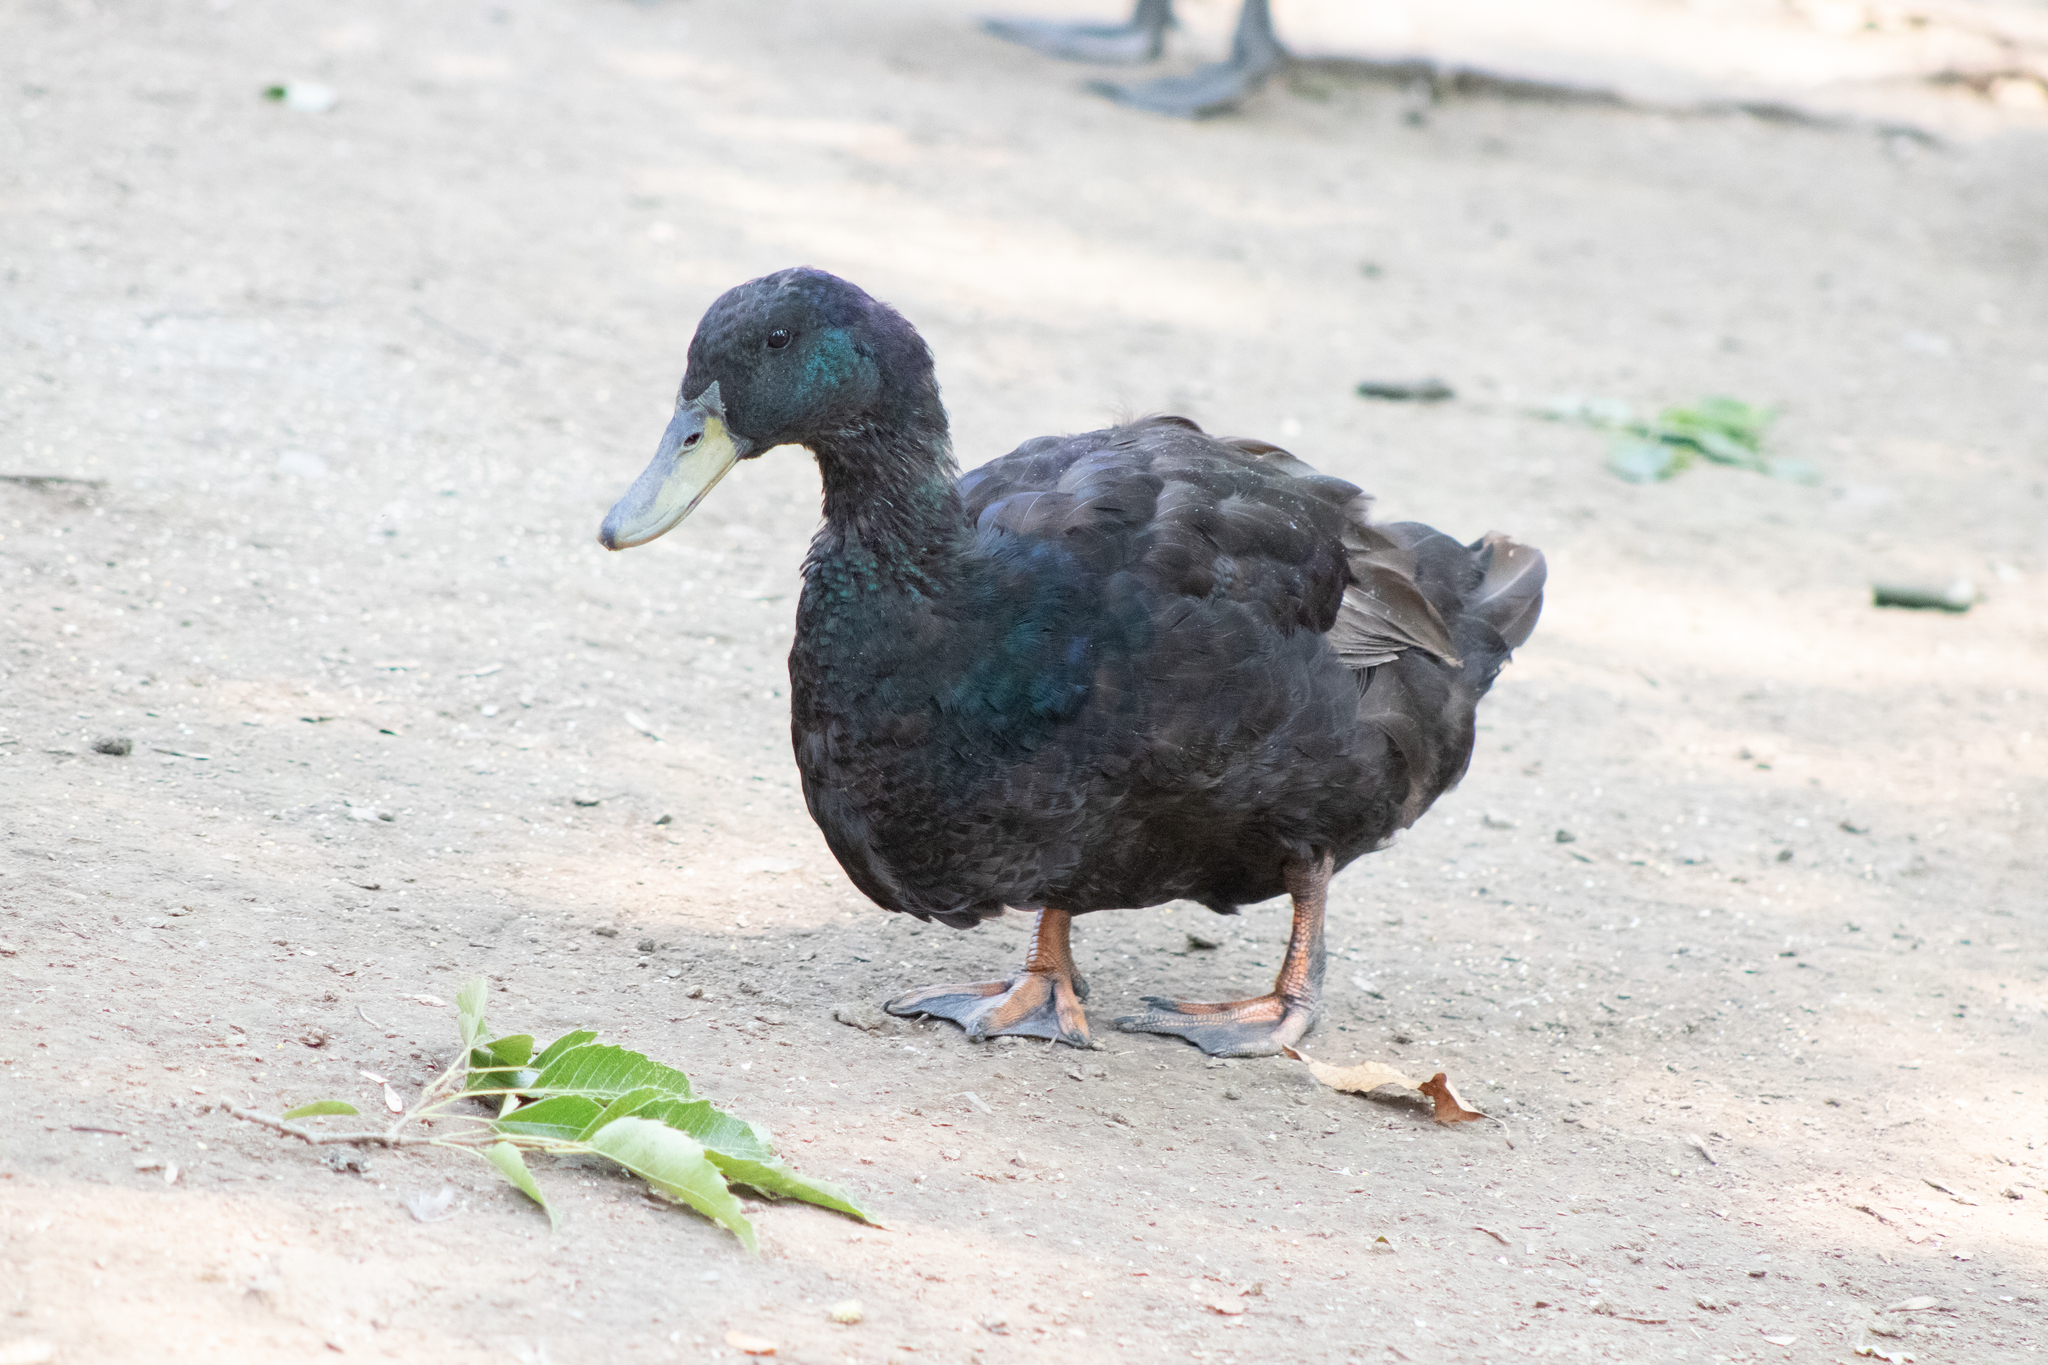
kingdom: Animalia
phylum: Chordata
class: Aves
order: Anseriformes
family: Anatidae
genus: Anas
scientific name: Anas platyrhynchos
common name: Mallard
